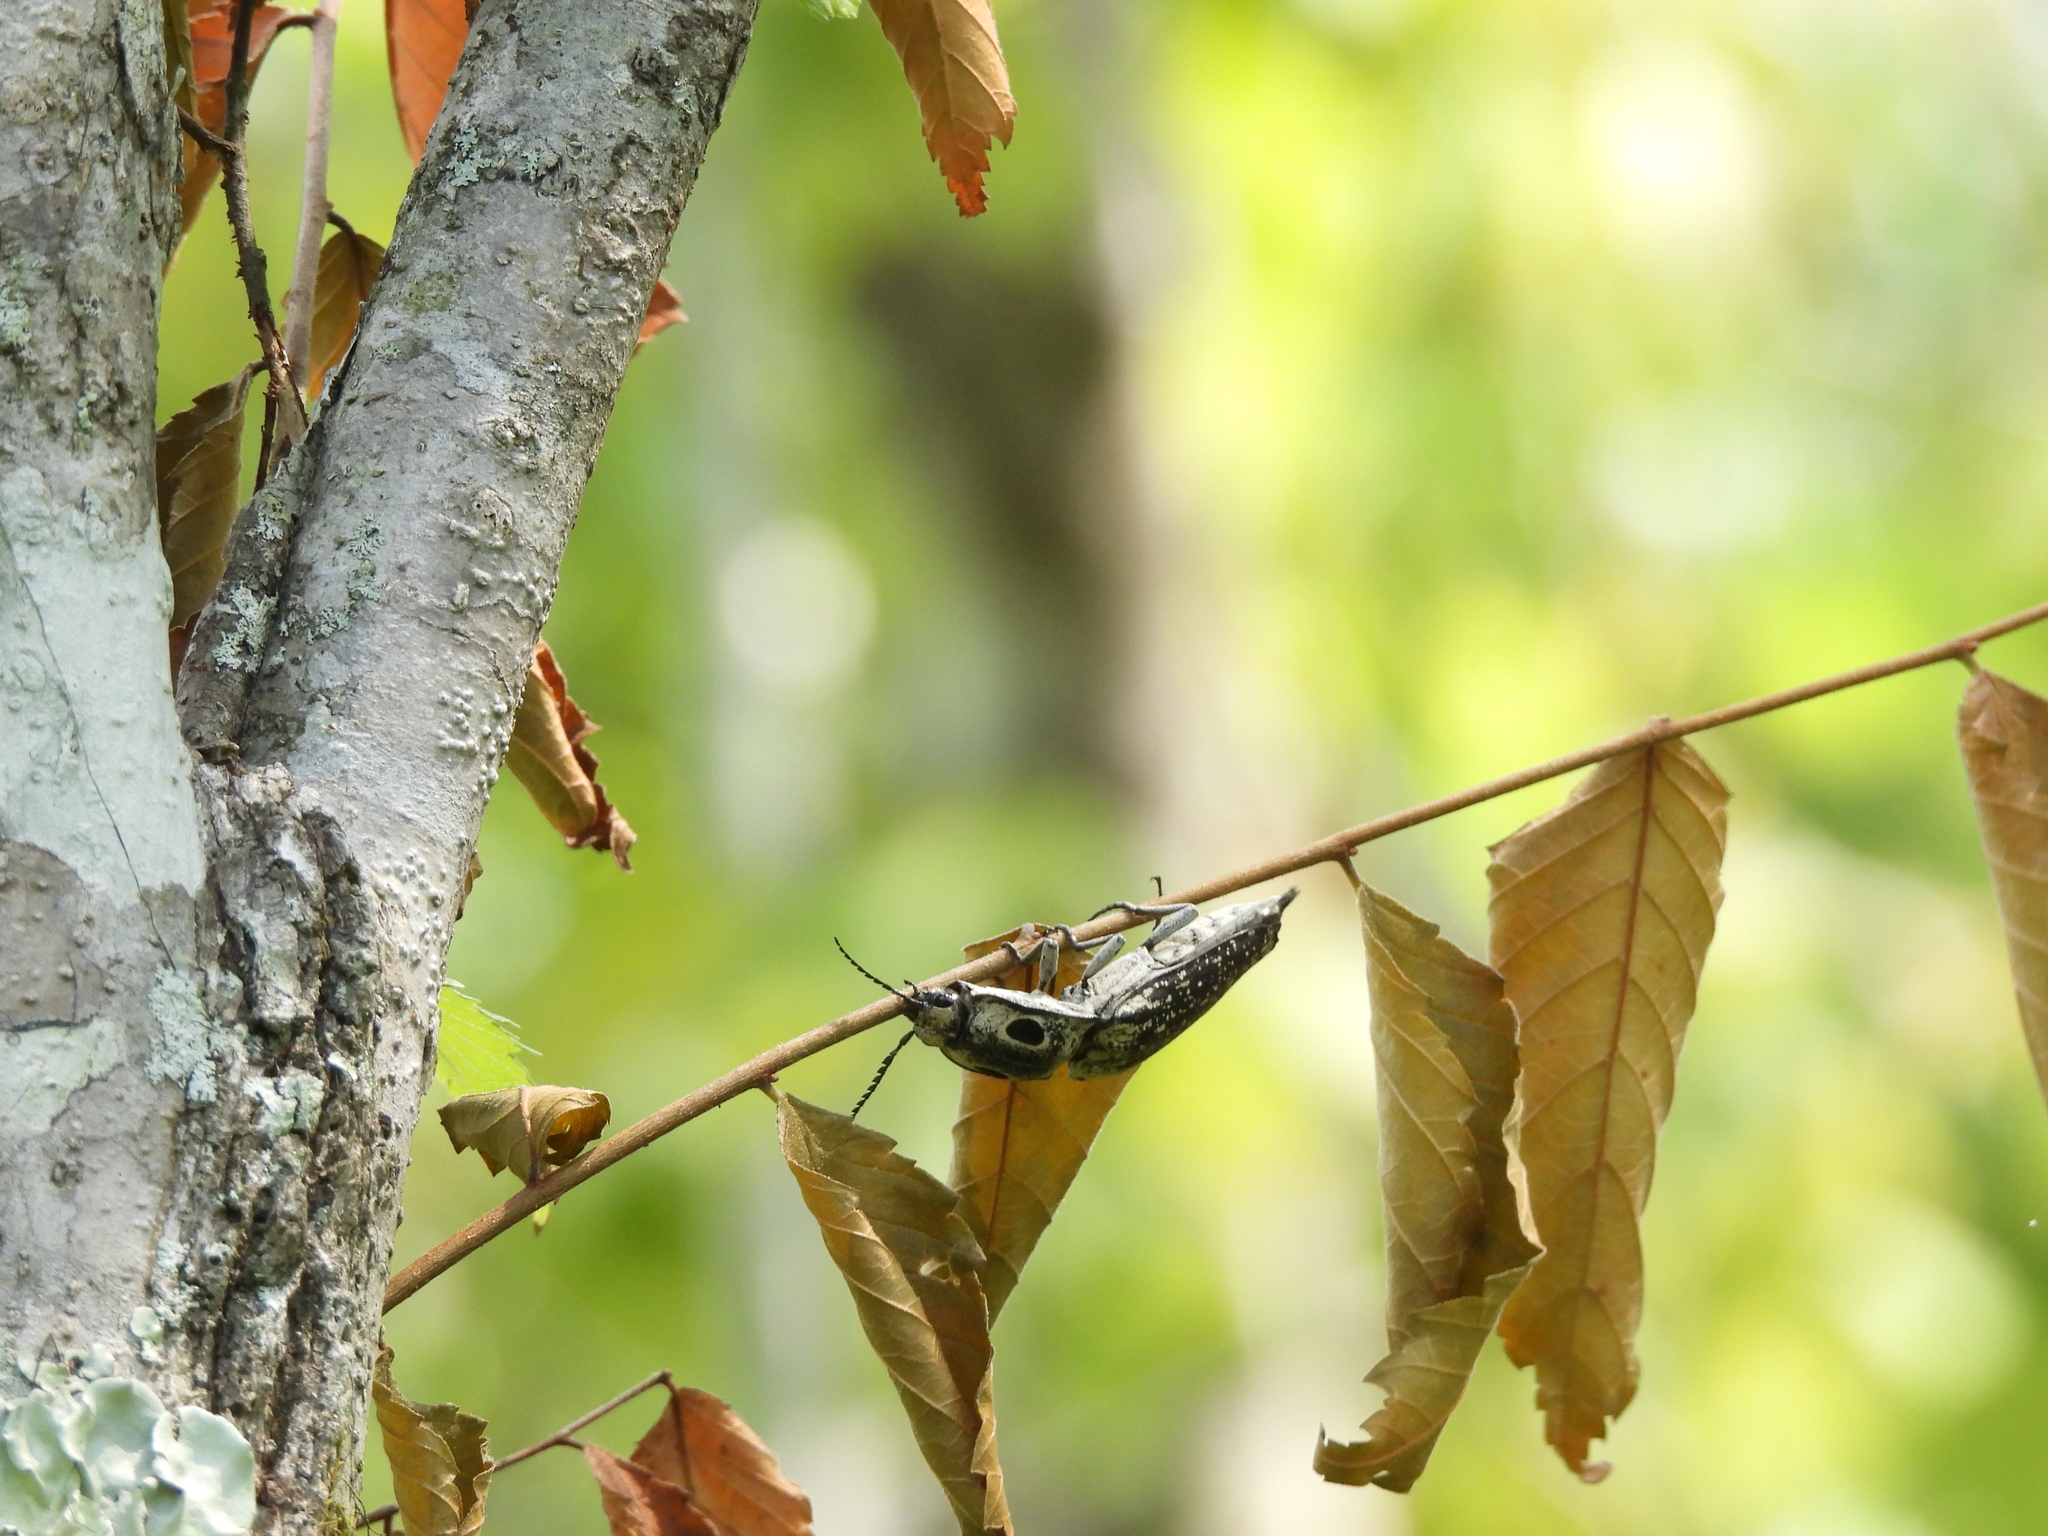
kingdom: Animalia
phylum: Arthropoda
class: Insecta
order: Coleoptera
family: Elateridae
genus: Alaus
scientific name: Alaus oculatus
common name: Eastern eyed click beetle
